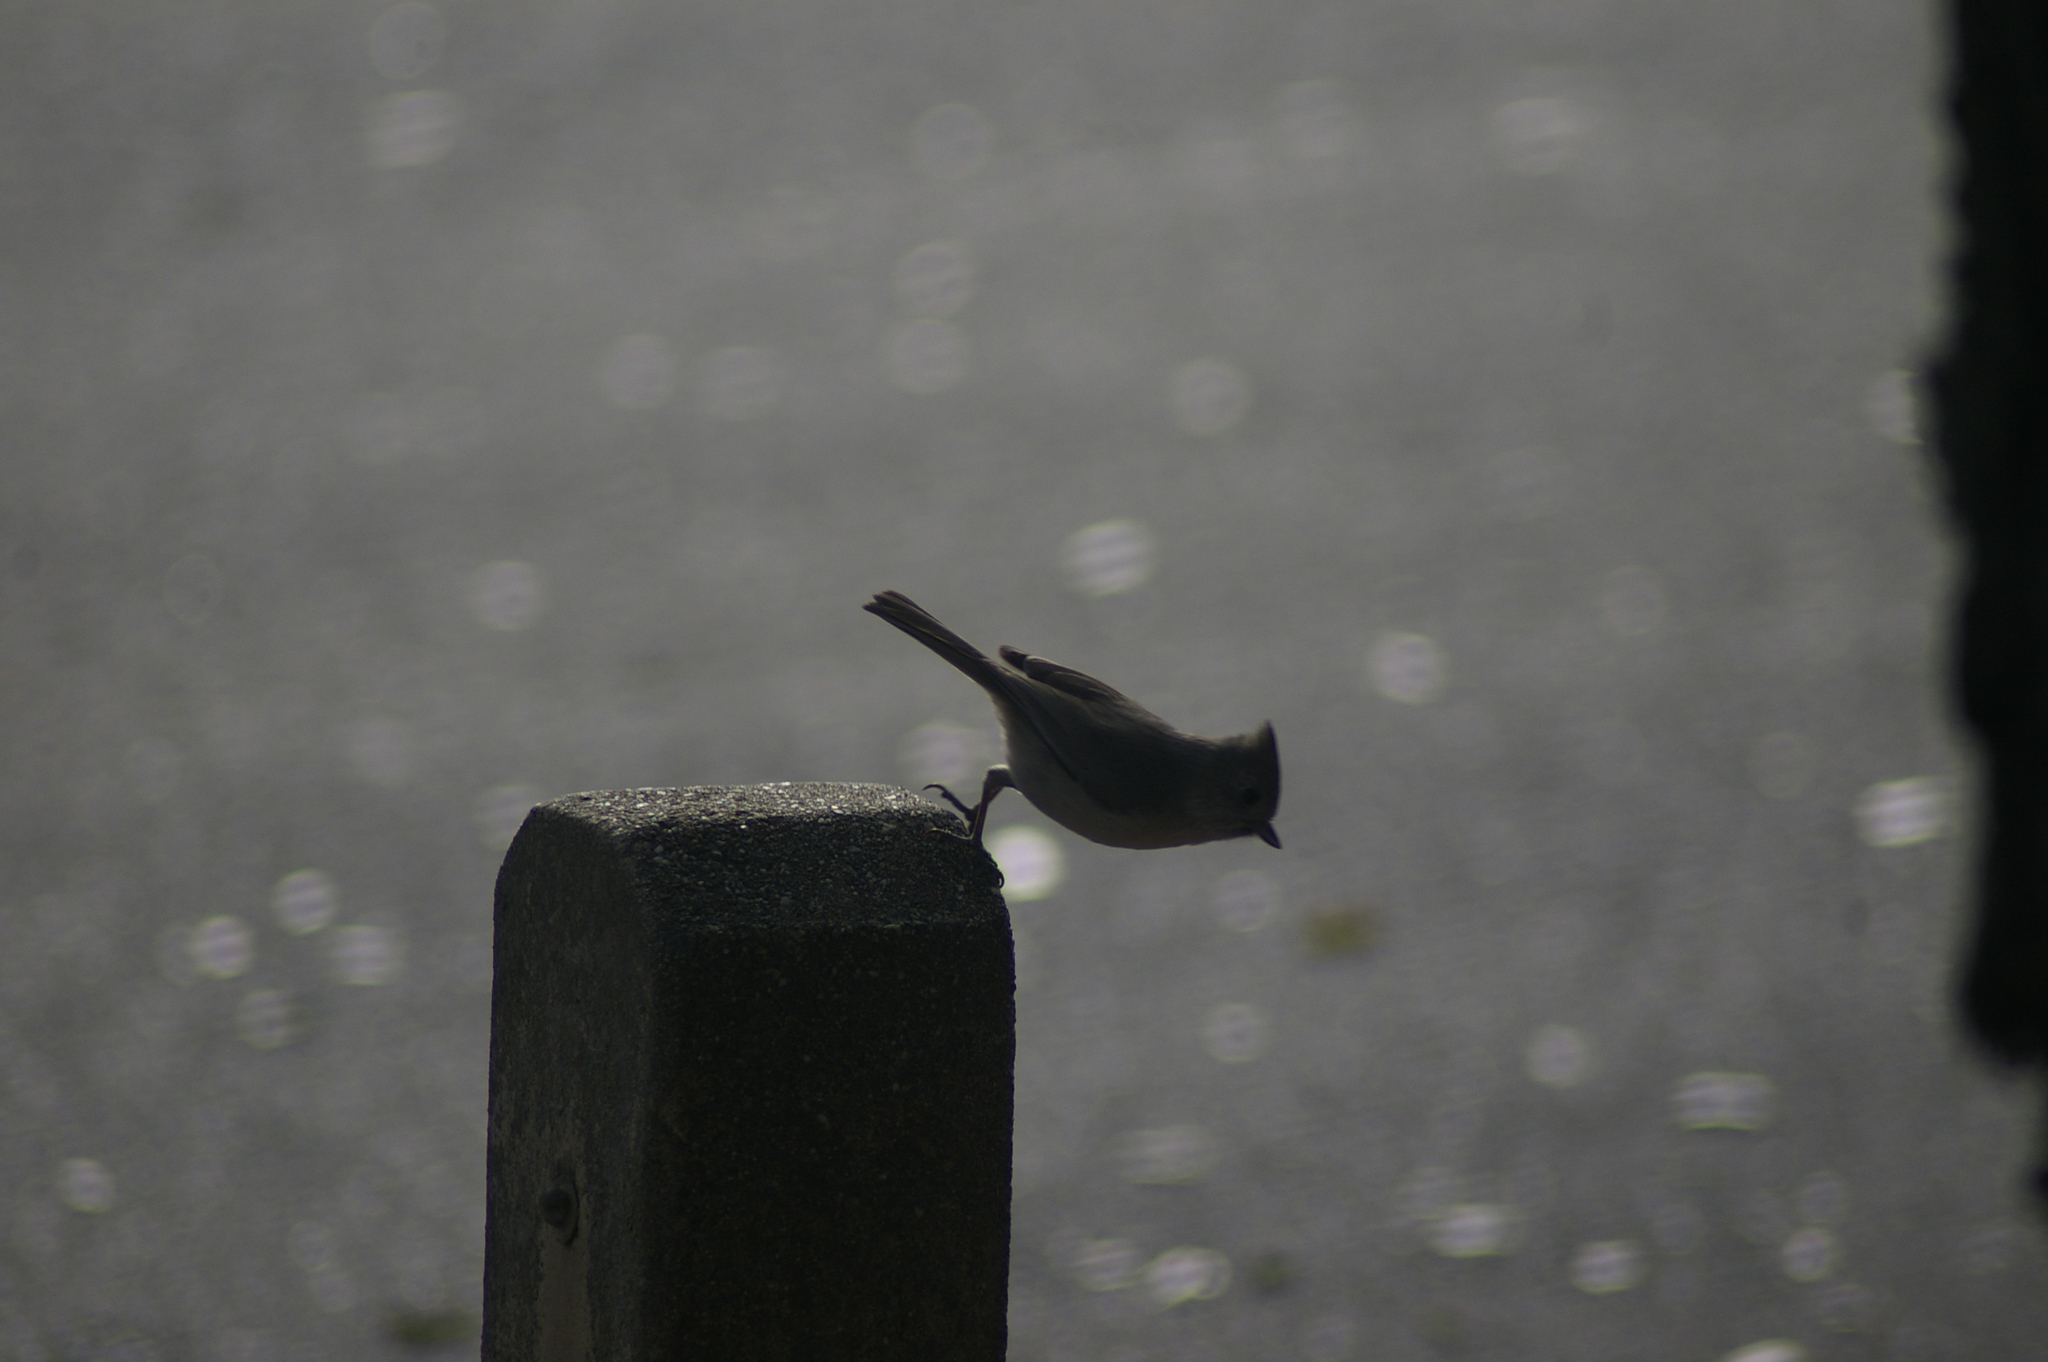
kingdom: Animalia
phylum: Chordata
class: Aves
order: Passeriformes
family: Paridae
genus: Baeolophus
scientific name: Baeolophus inornatus
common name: Oak titmouse
